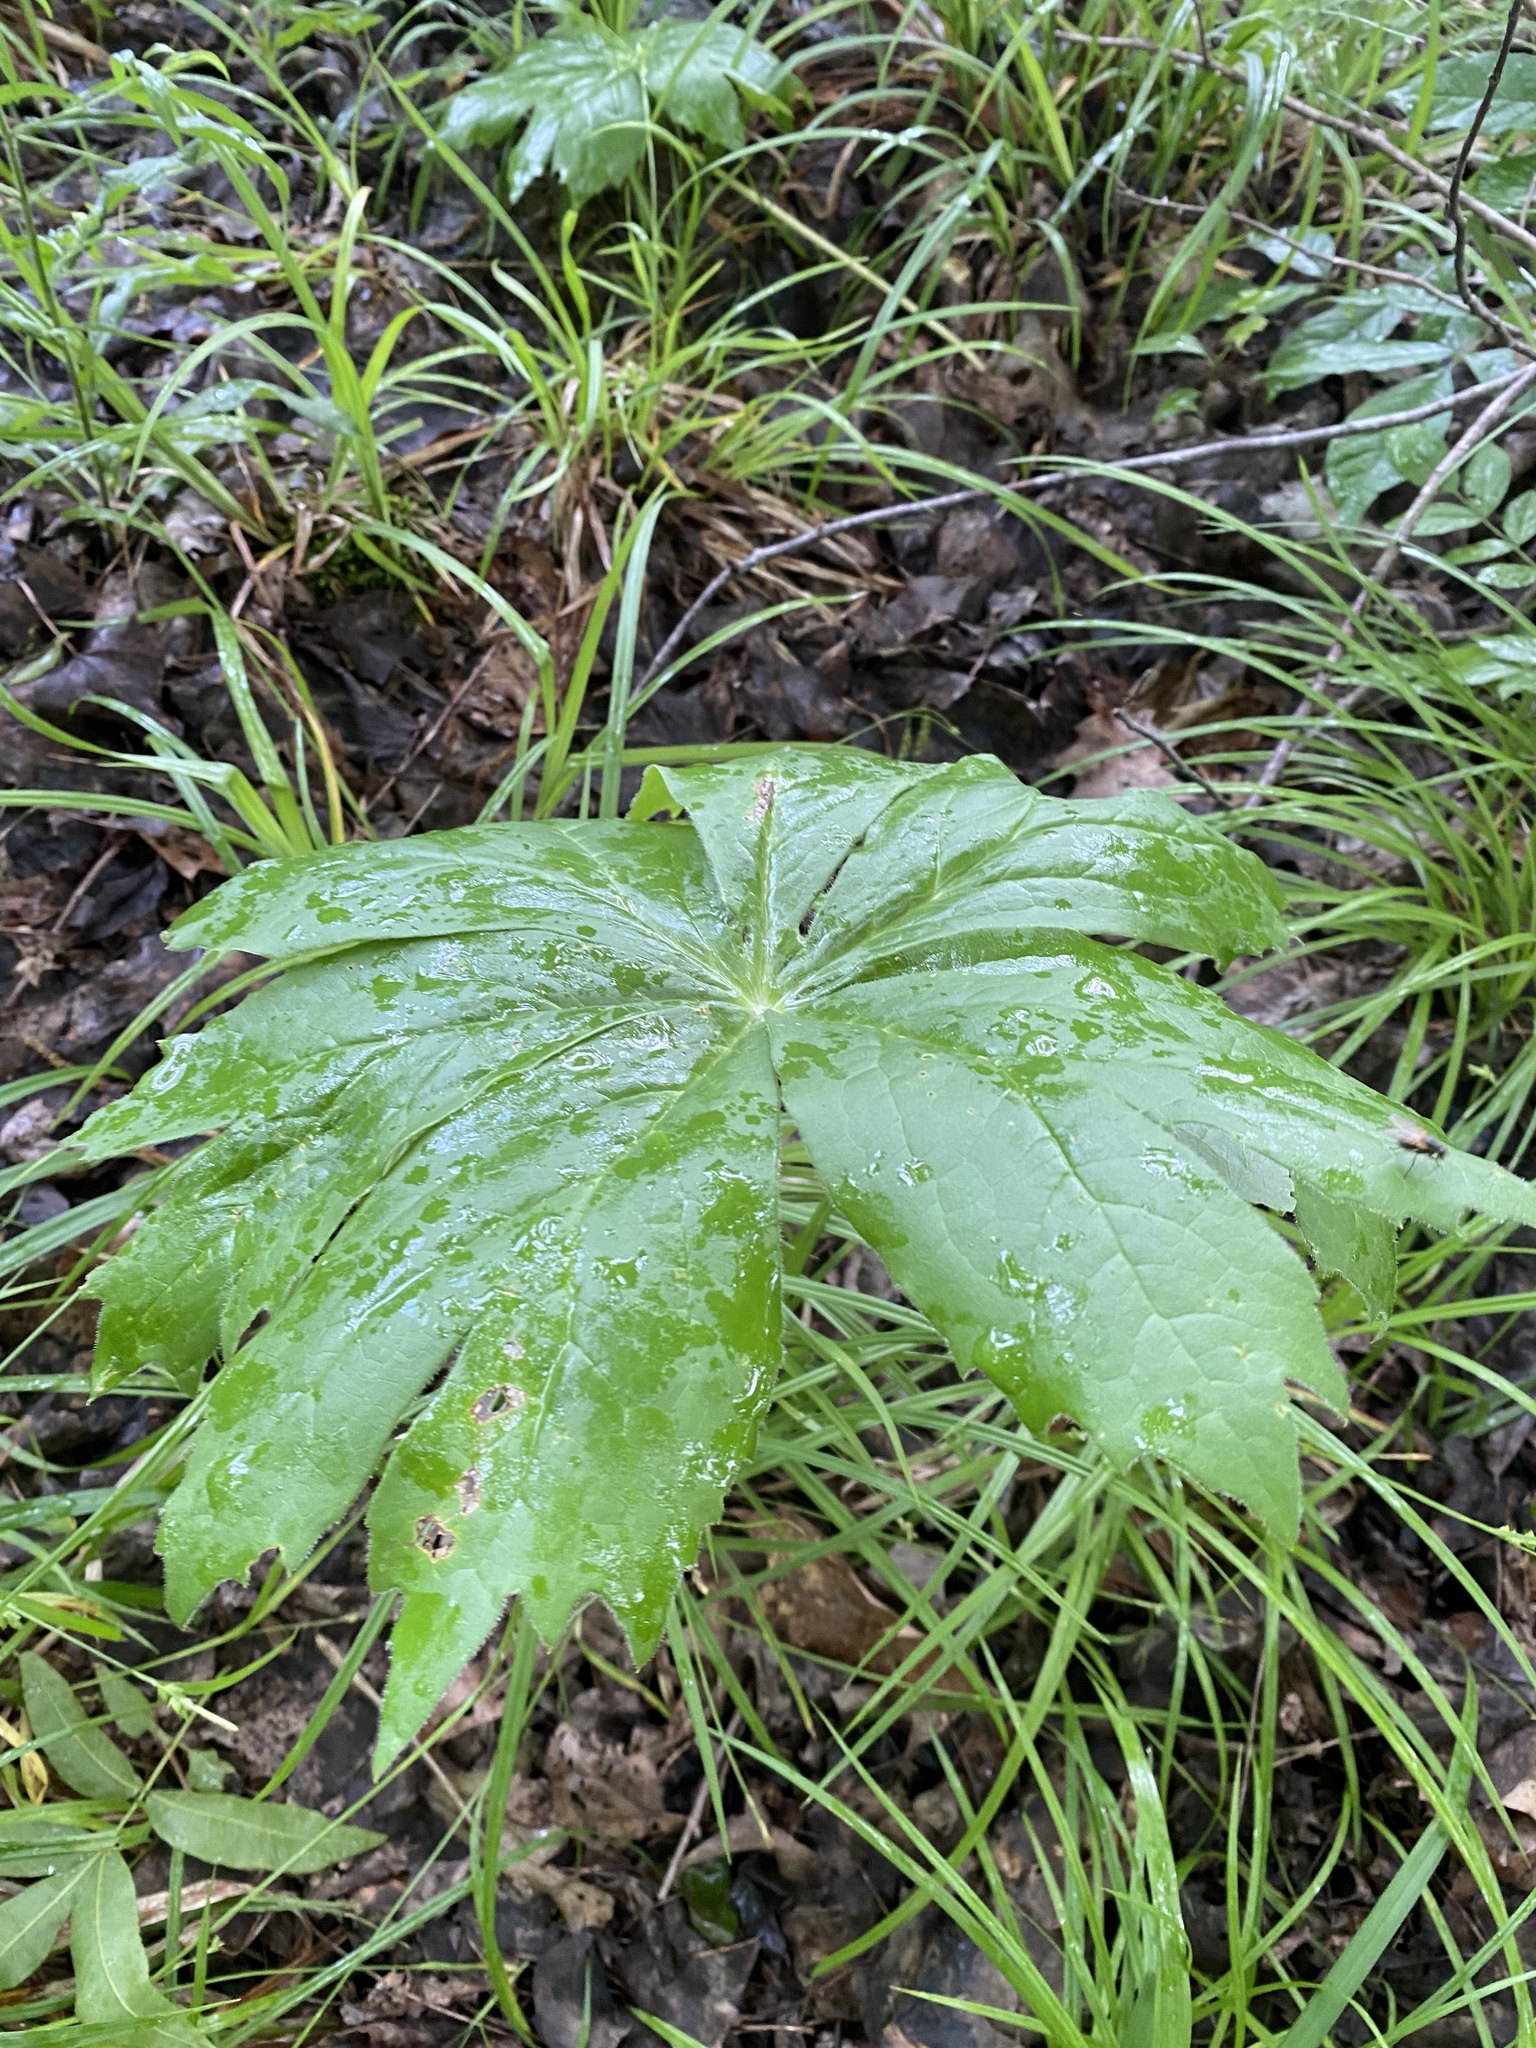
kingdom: Plantae
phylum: Tracheophyta
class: Magnoliopsida
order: Ranunculales
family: Berberidaceae
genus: Podophyllum
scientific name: Podophyllum peltatum
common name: Wild mandrake
